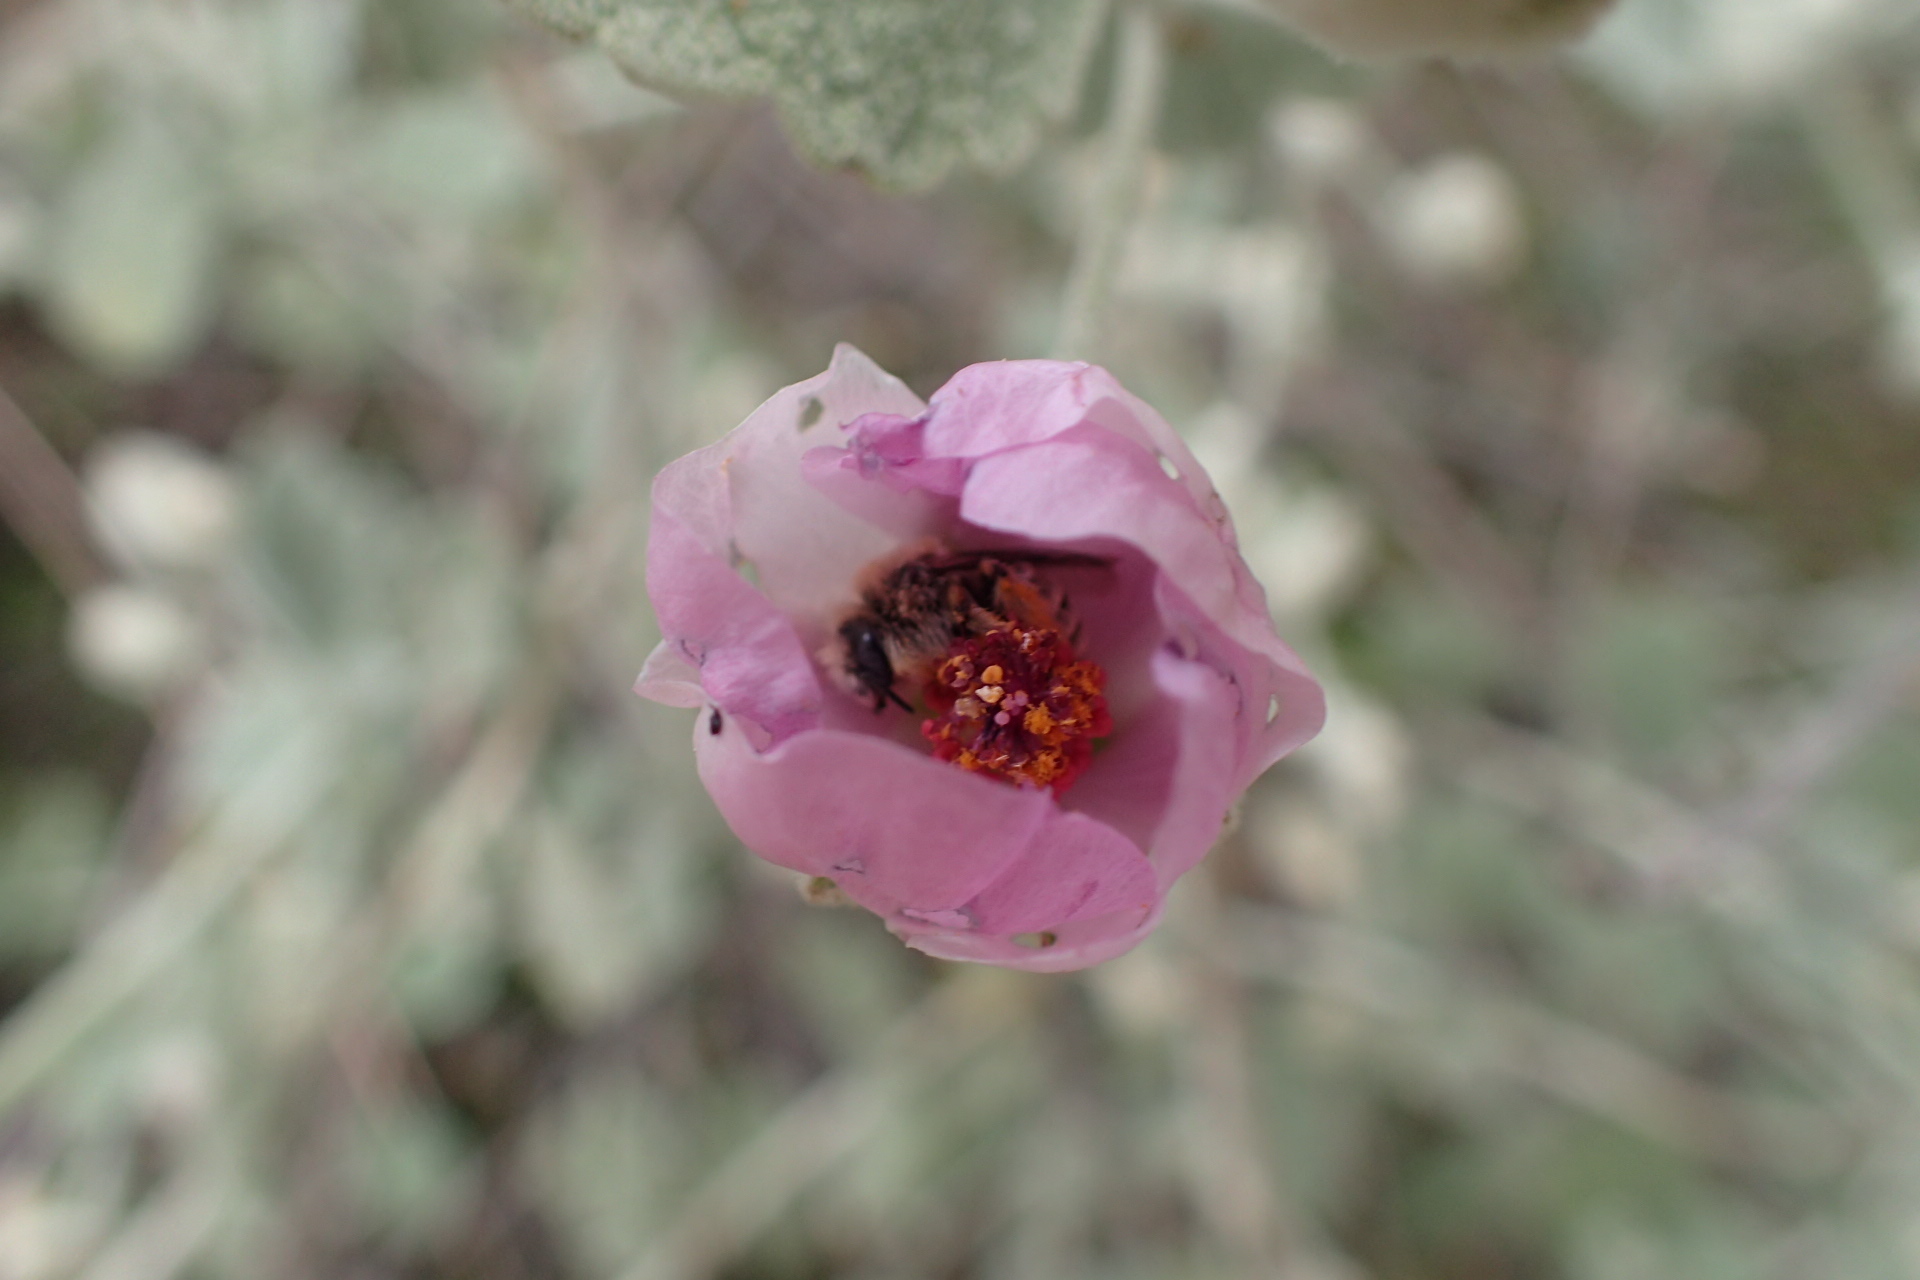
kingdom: Plantae
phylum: Tracheophyta
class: Magnoliopsida
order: Malvales
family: Malvaceae
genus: Malacothamnus
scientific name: Malacothamnus jonesii
